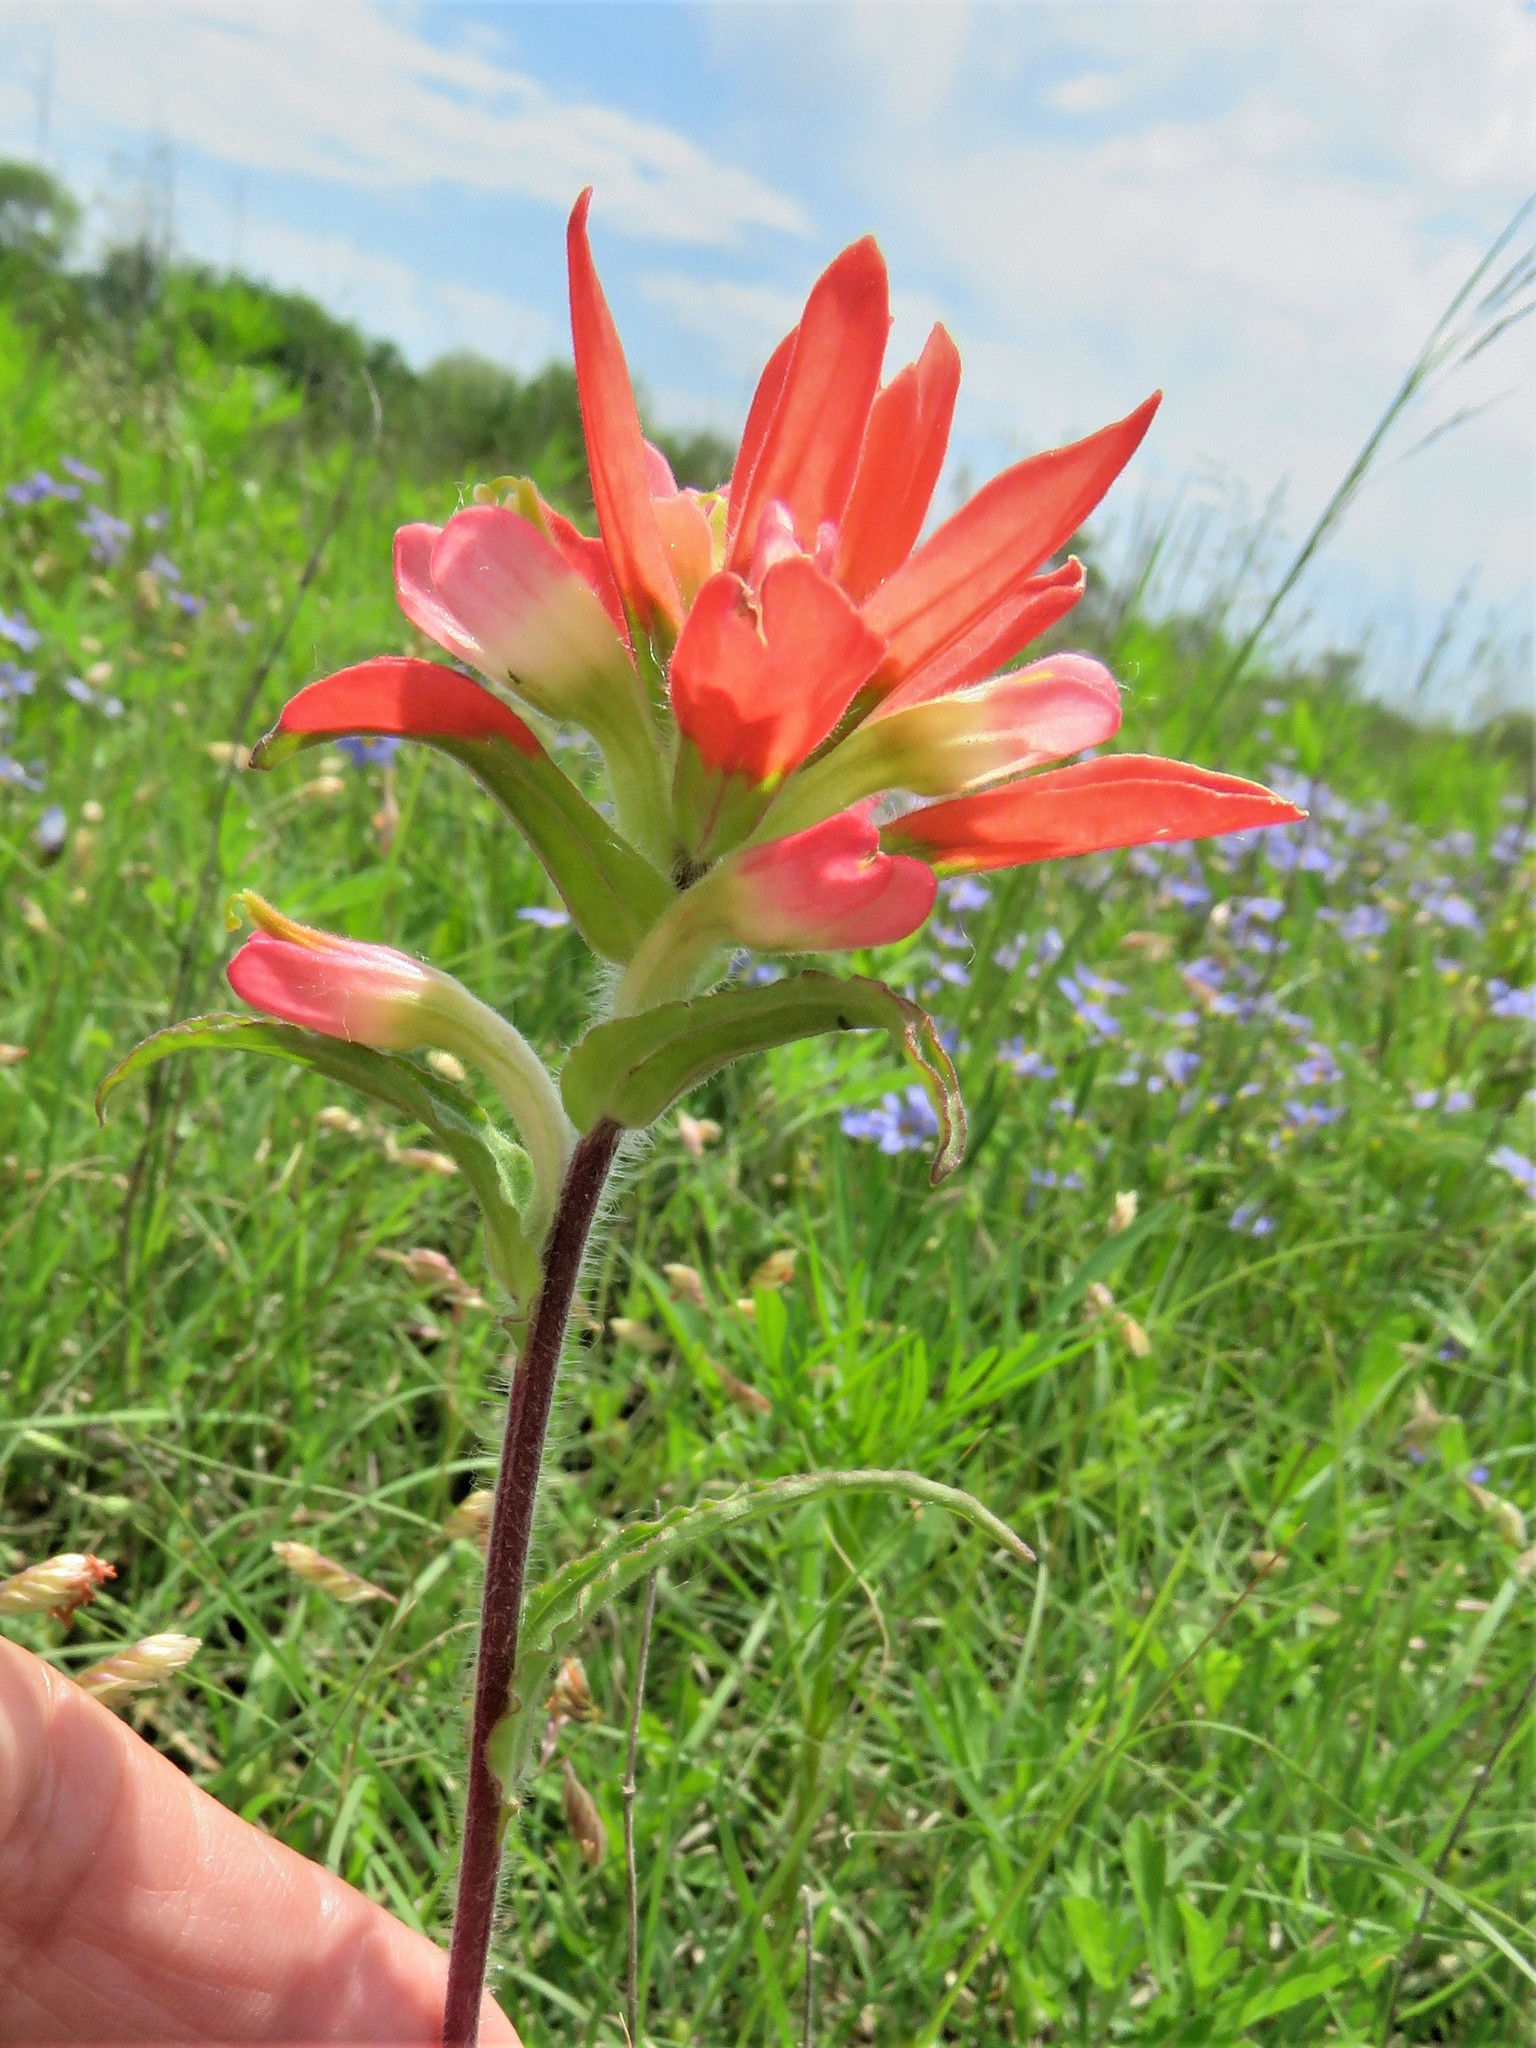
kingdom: Plantae
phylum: Tracheophyta
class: Magnoliopsida
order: Lamiales
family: Orobanchaceae
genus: Castilleja
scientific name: Castilleja indivisa
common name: Texas paintbrush
